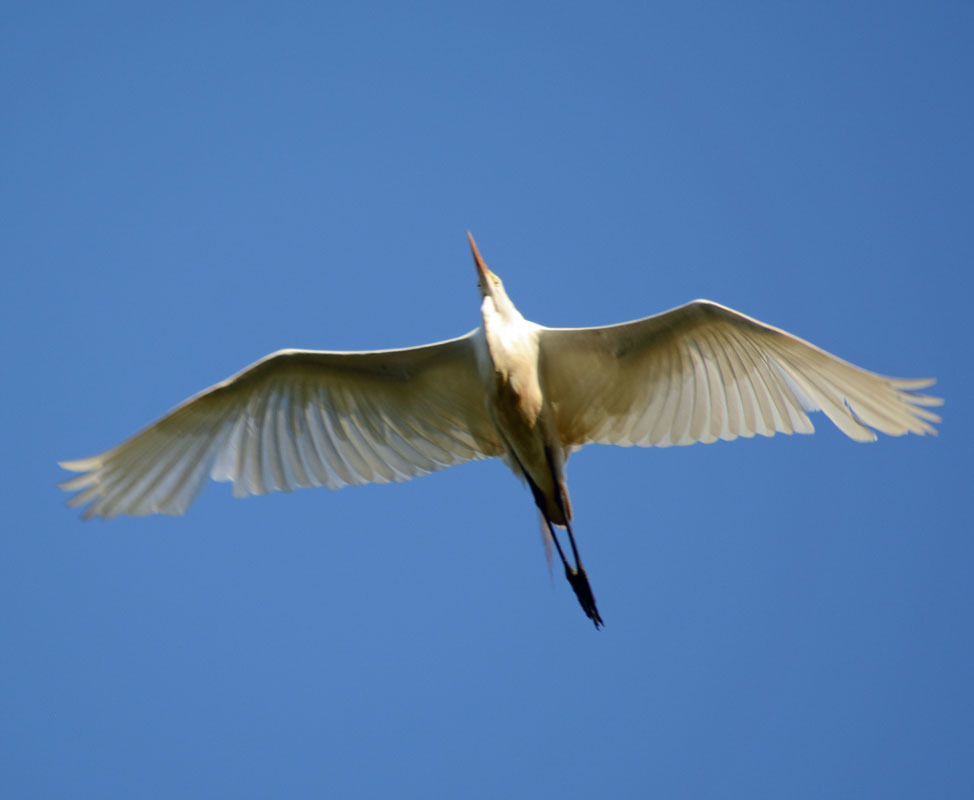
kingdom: Animalia
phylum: Chordata
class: Aves
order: Pelecaniformes
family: Ardeidae
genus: Ardea
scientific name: Ardea alba
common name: Great egret
